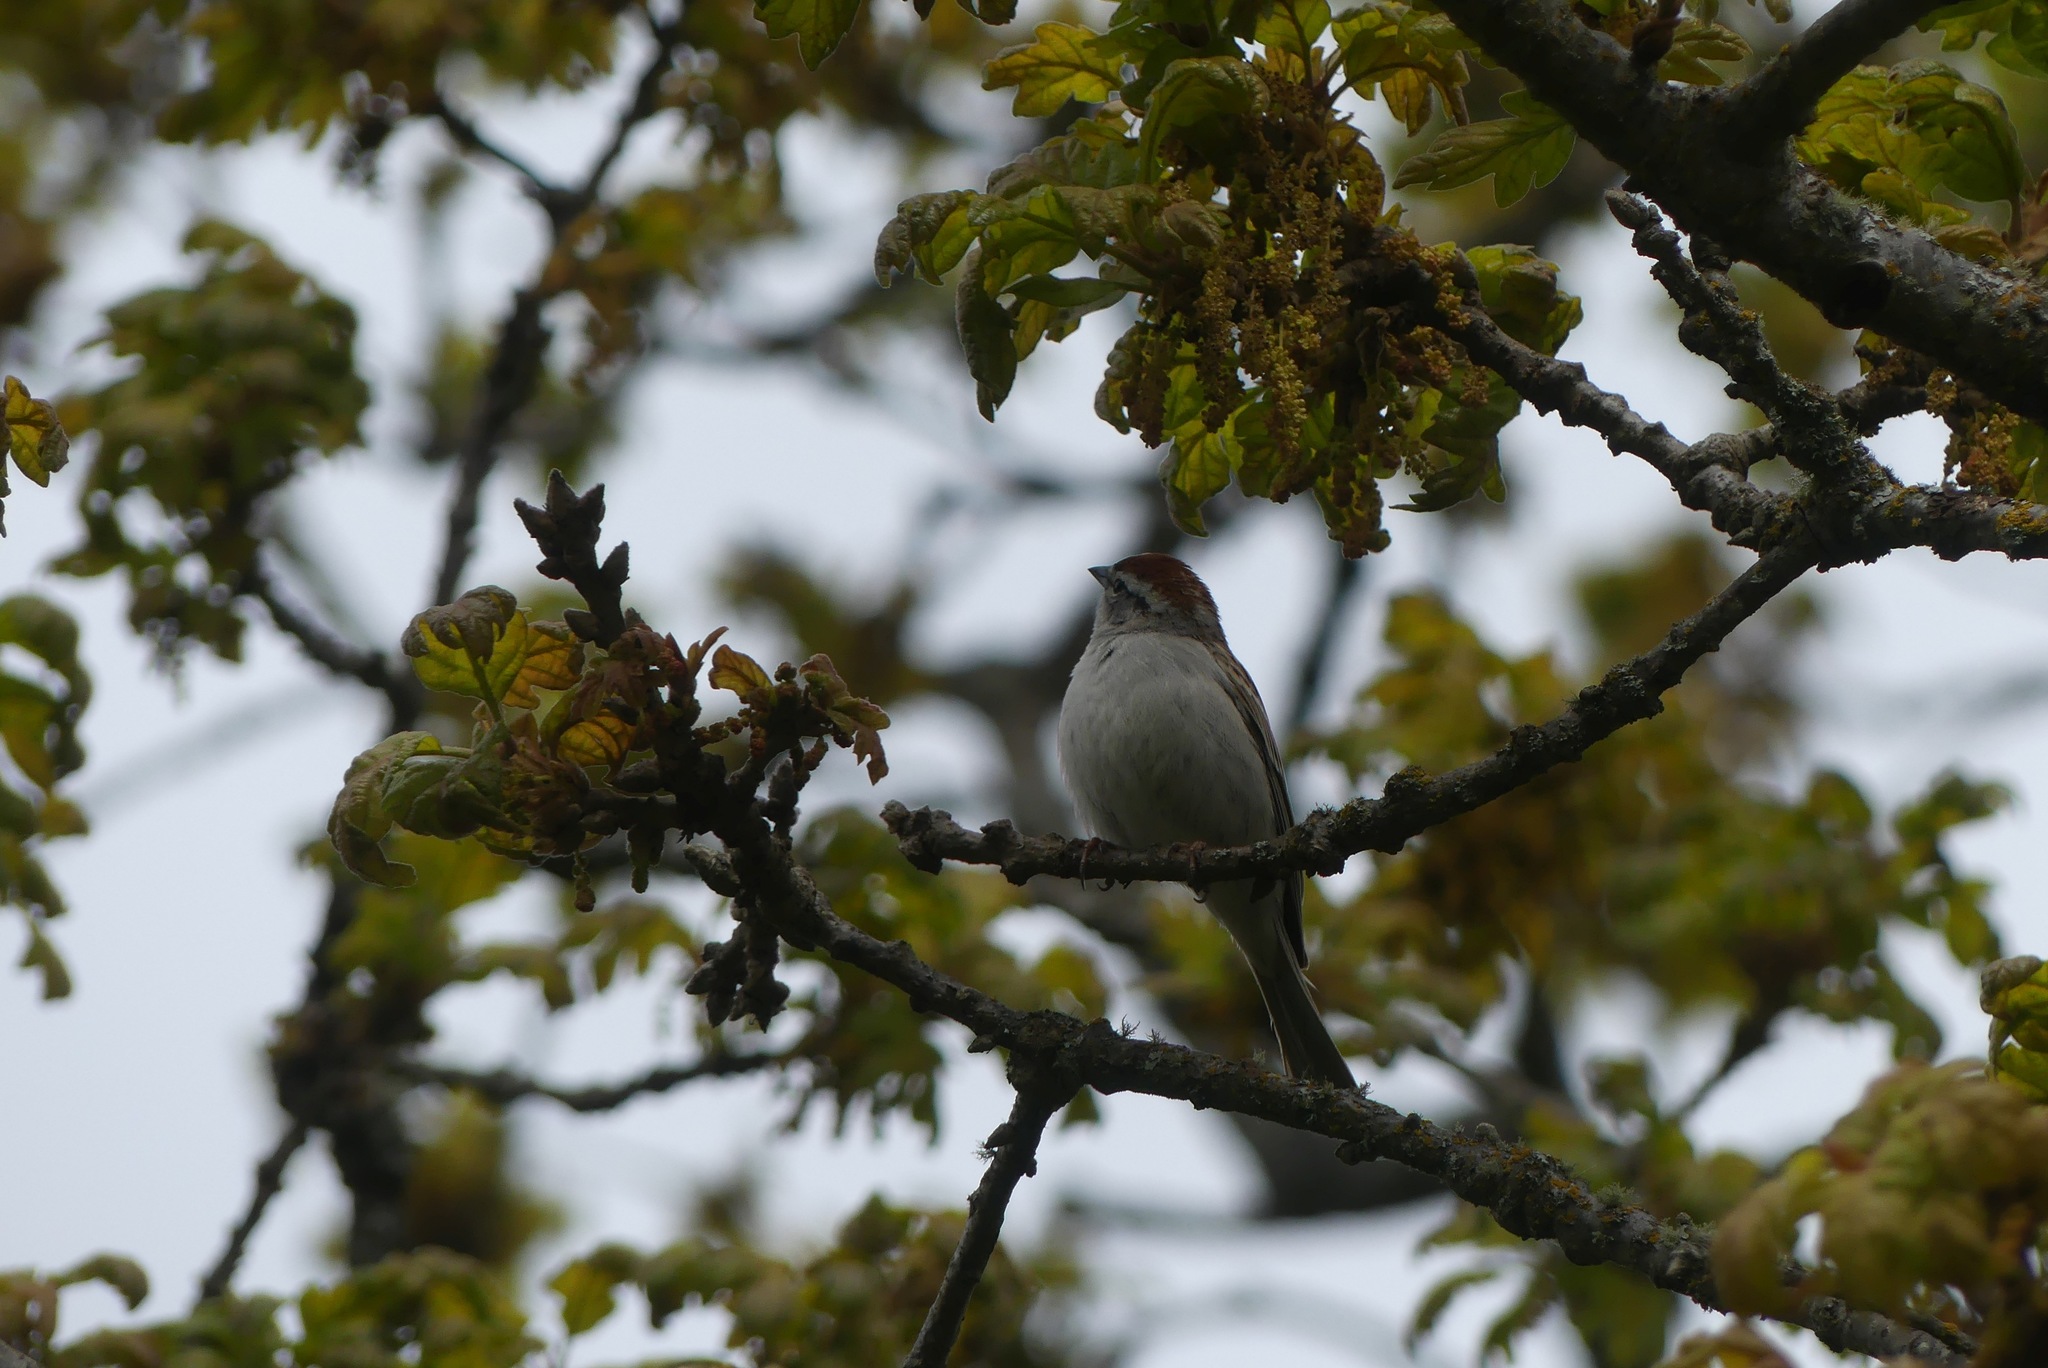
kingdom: Animalia
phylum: Chordata
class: Aves
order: Passeriformes
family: Passerellidae
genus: Spizella
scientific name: Spizella passerina
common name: Chipping sparrow
